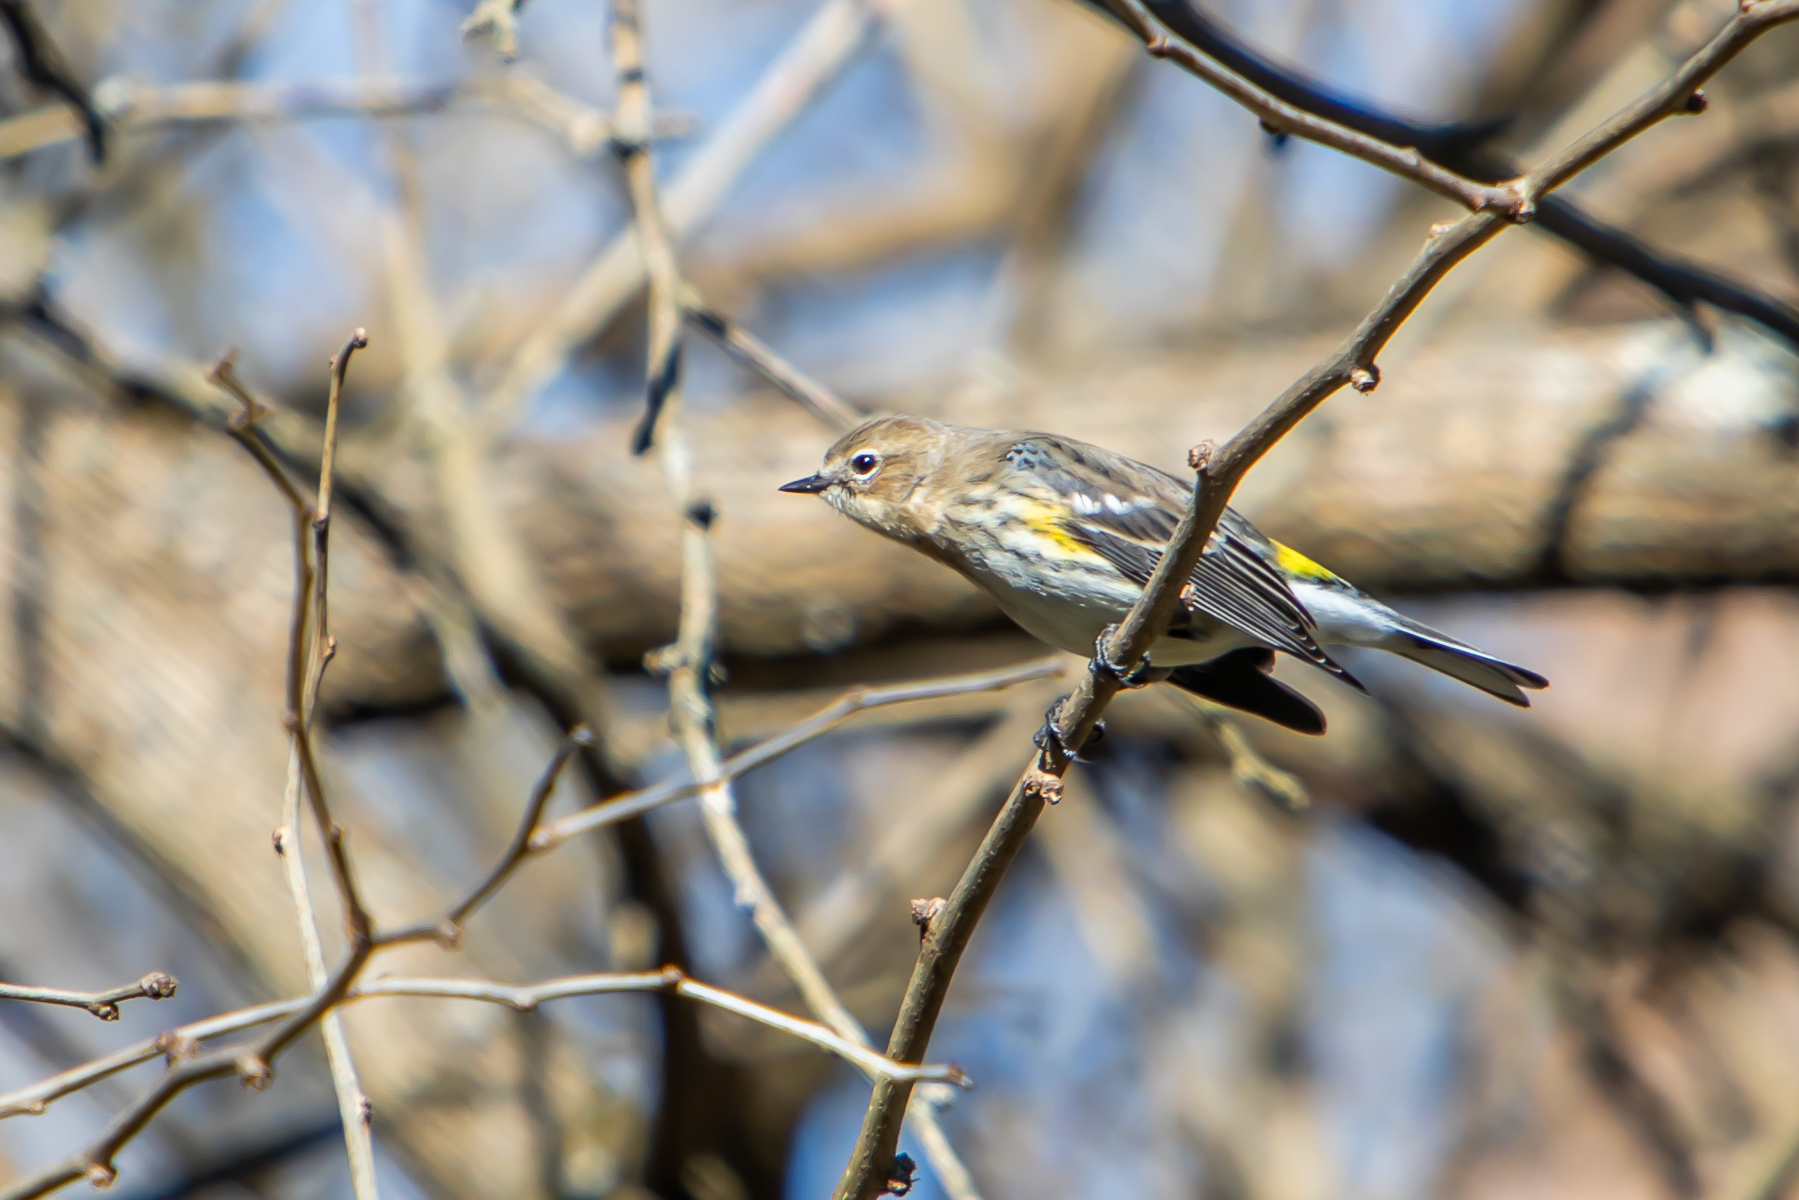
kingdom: Animalia
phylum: Chordata
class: Aves
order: Passeriformes
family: Parulidae
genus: Setophaga
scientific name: Setophaga coronata
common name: Myrtle warbler
